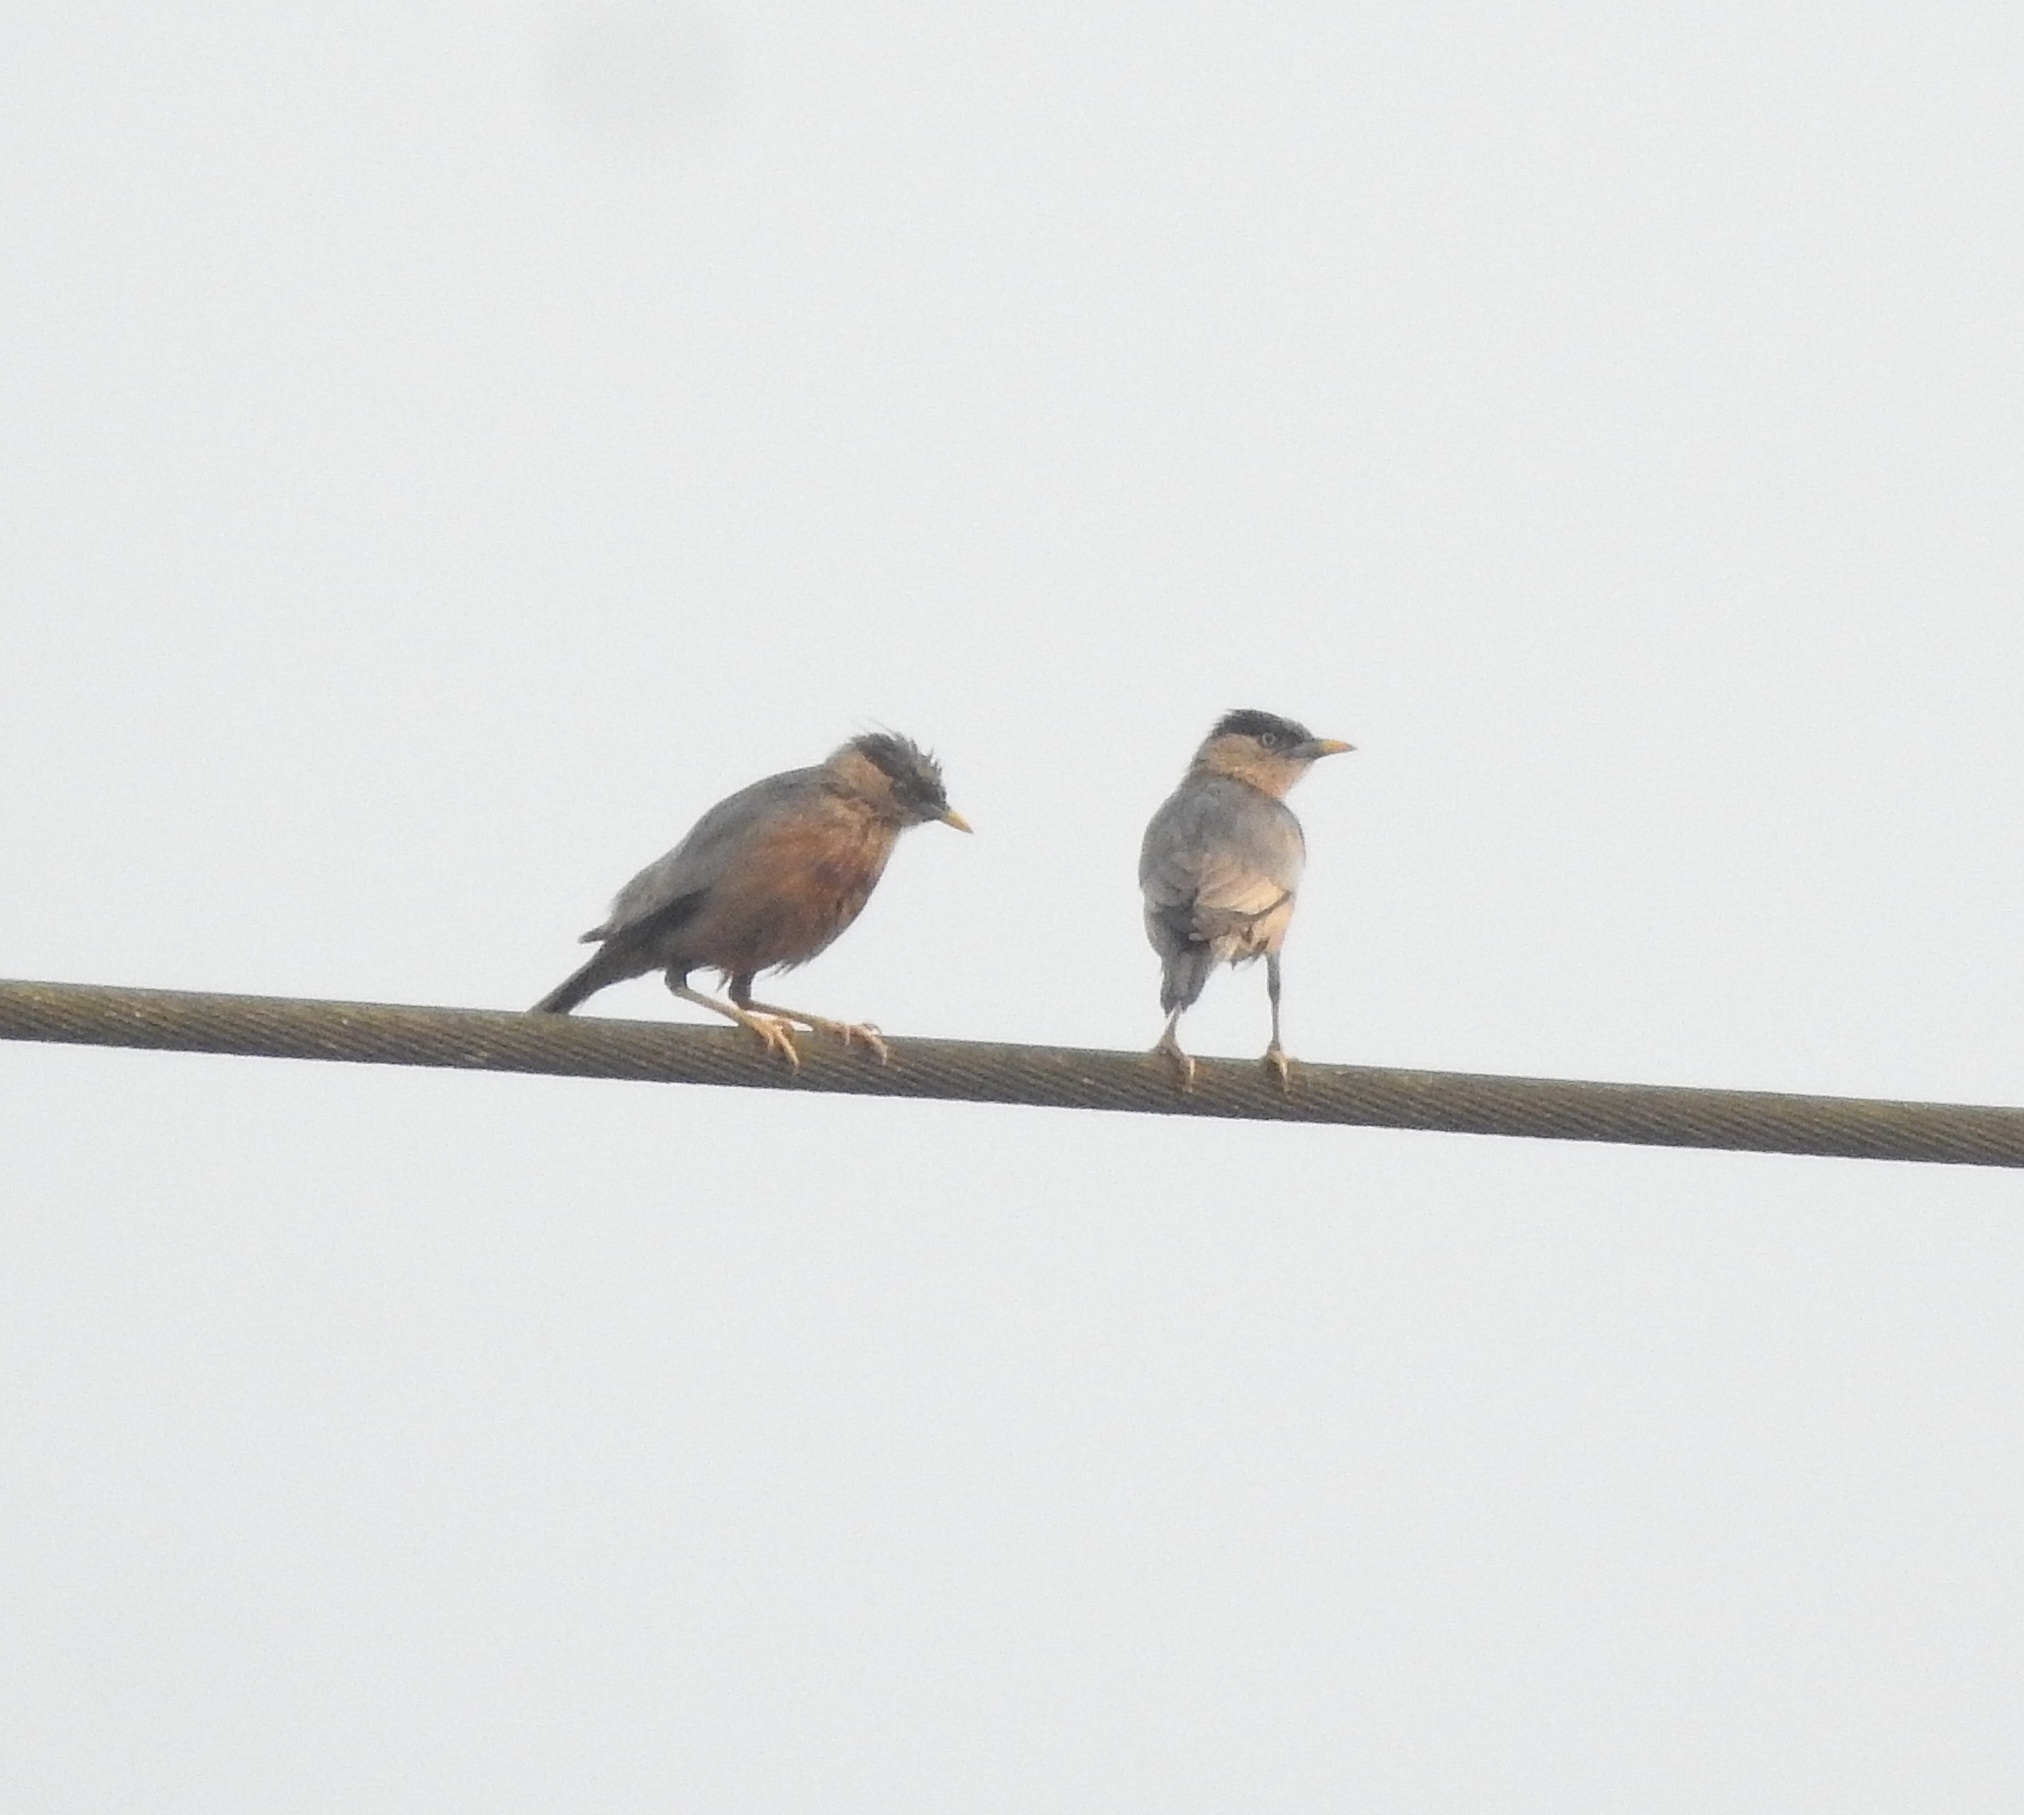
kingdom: Animalia
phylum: Chordata
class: Aves
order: Passeriformes
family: Sturnidae
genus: Sturnia
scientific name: Sturnia pagodarum
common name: Brahminy starling
